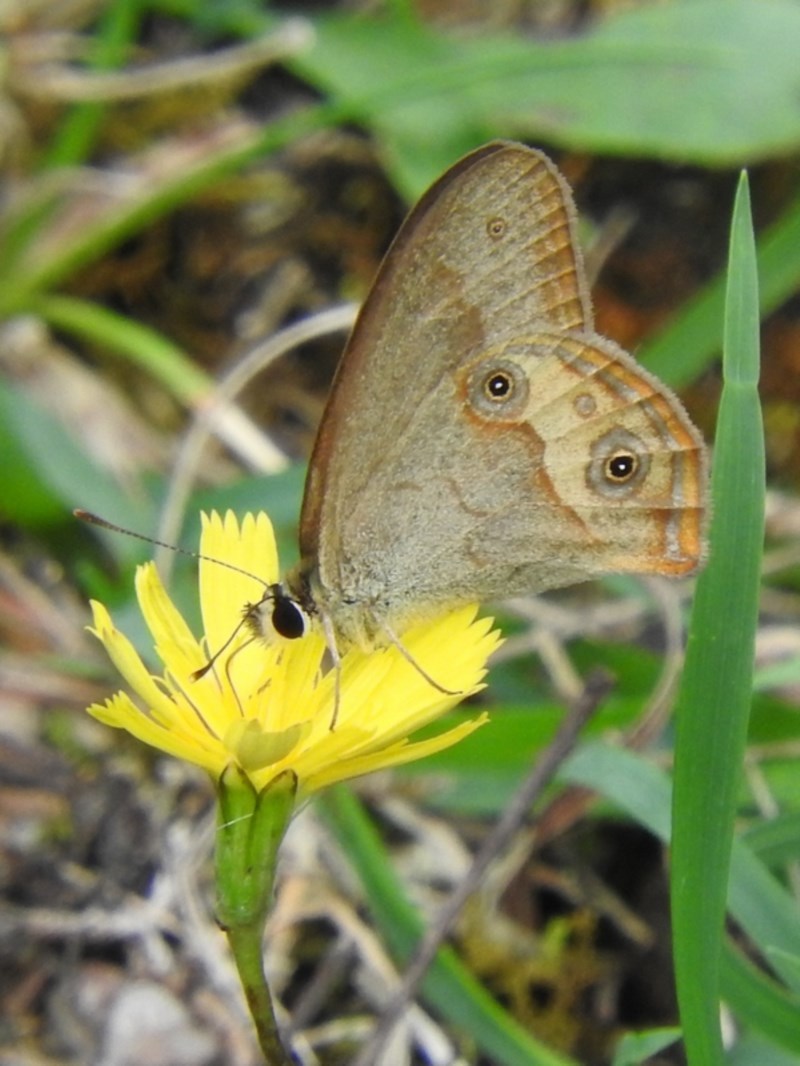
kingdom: Animalia
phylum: Arthropoda
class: Insecta
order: Lepidoptera
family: Nymphalidae
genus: Hypocysta
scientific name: Hypocysta metirius
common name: Brown ringlet
